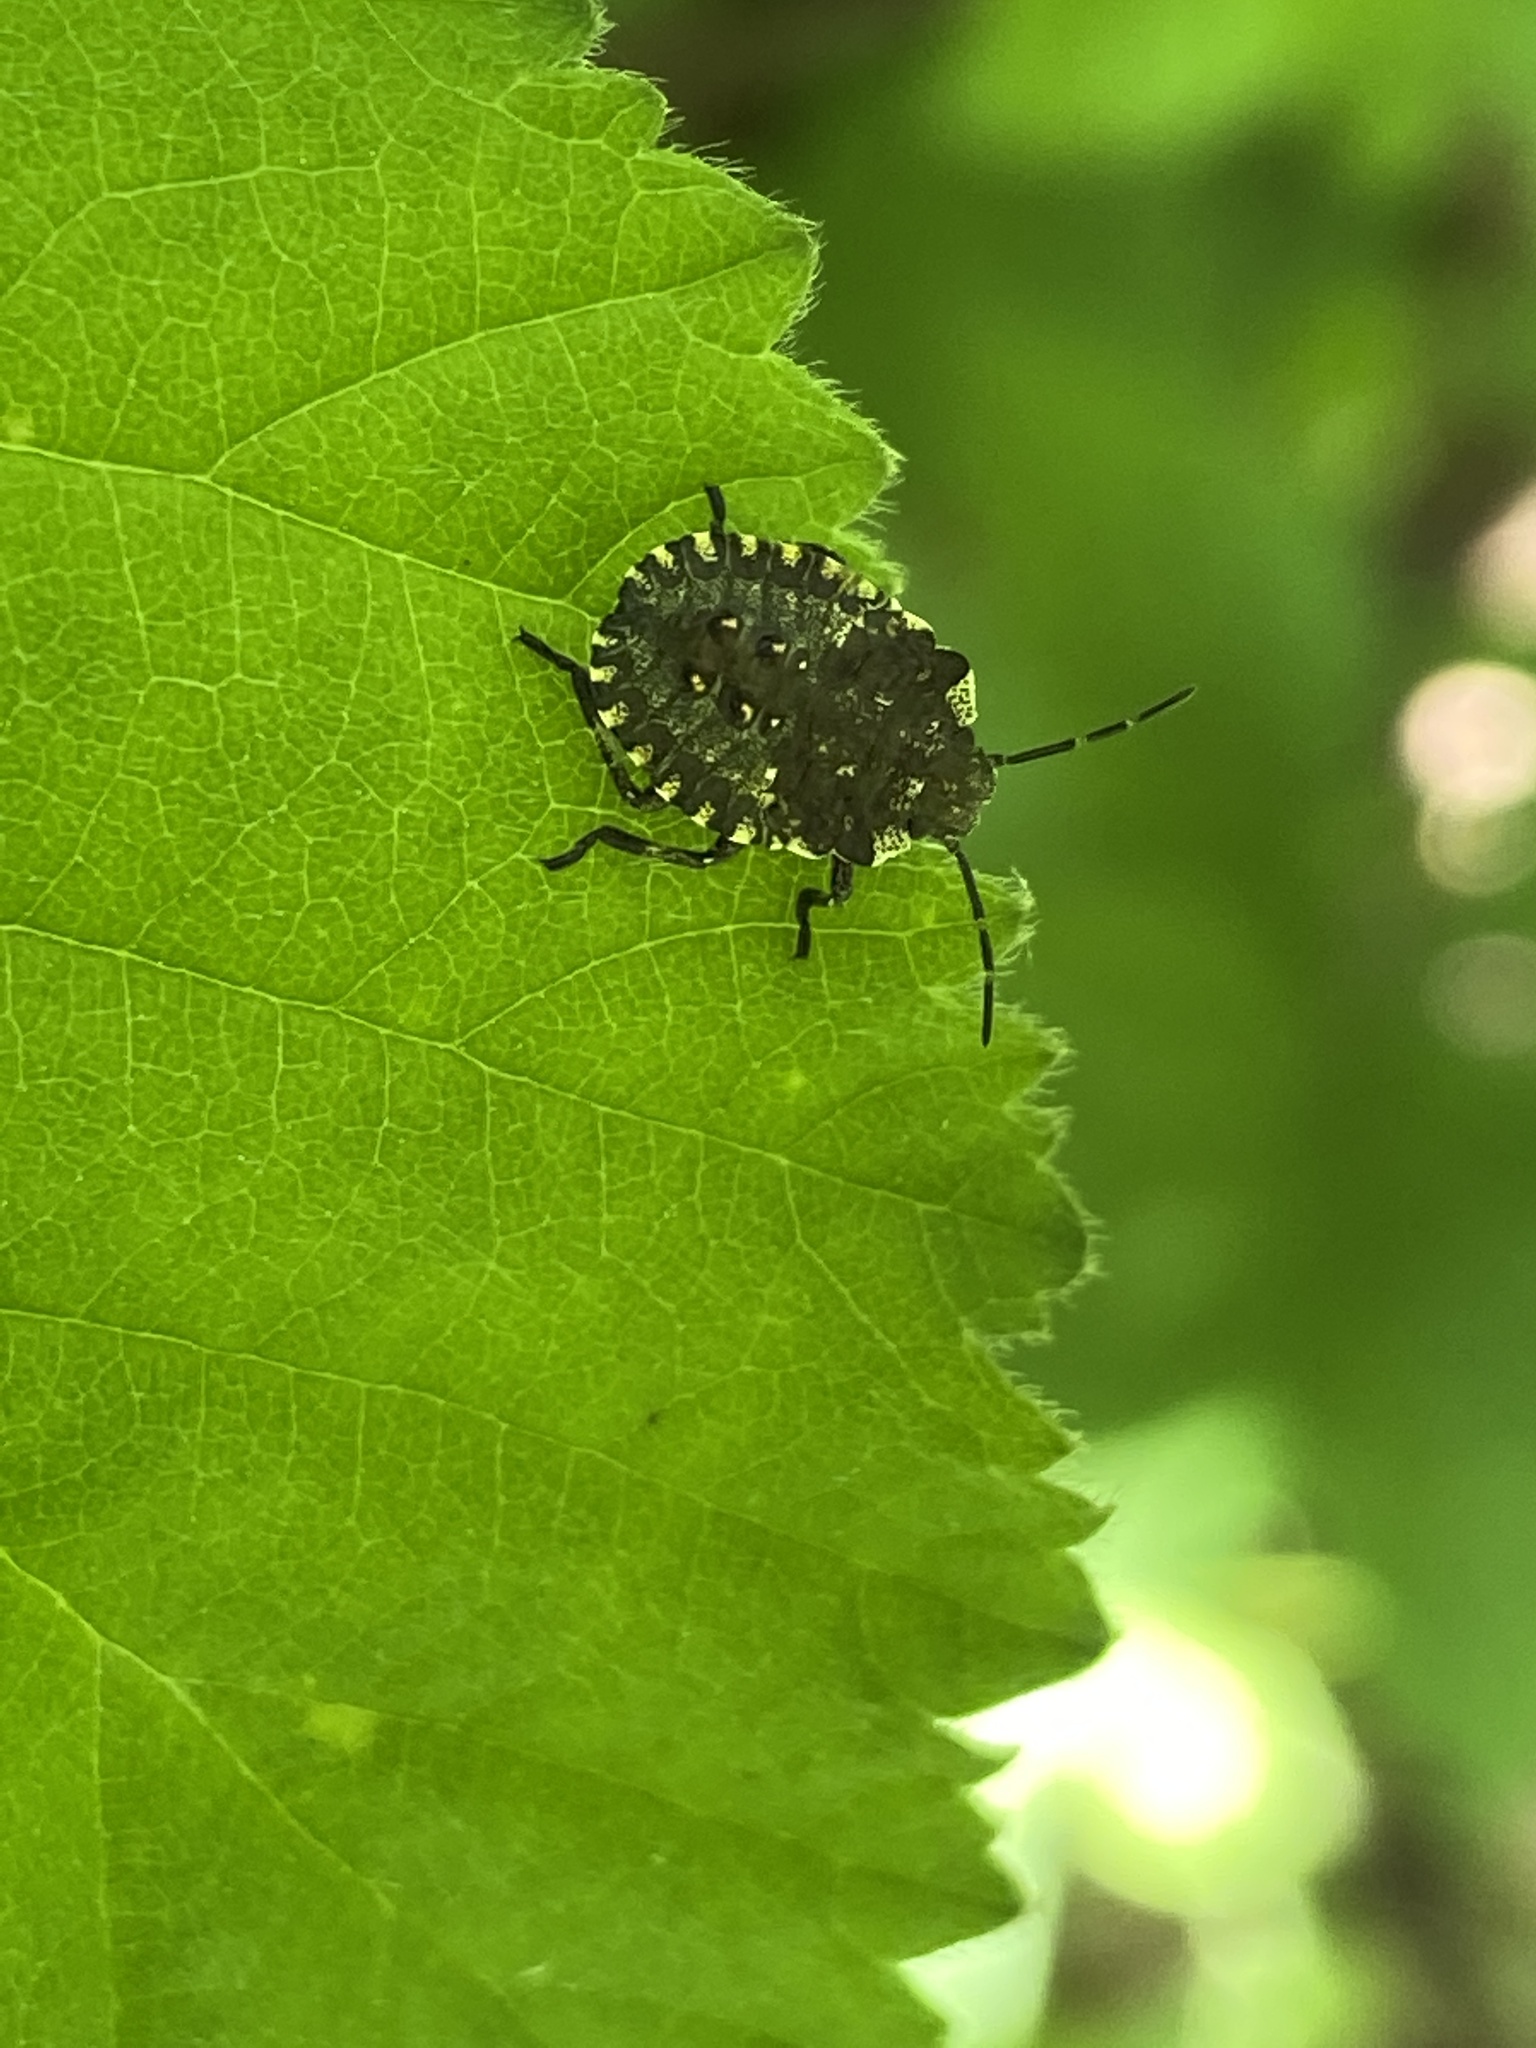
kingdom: Animalia
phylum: Arthropoda
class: Insecta
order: Hemiptera
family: Pentatomidae
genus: Pentatoma
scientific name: Pentatoma rufipes
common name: Forest bug
